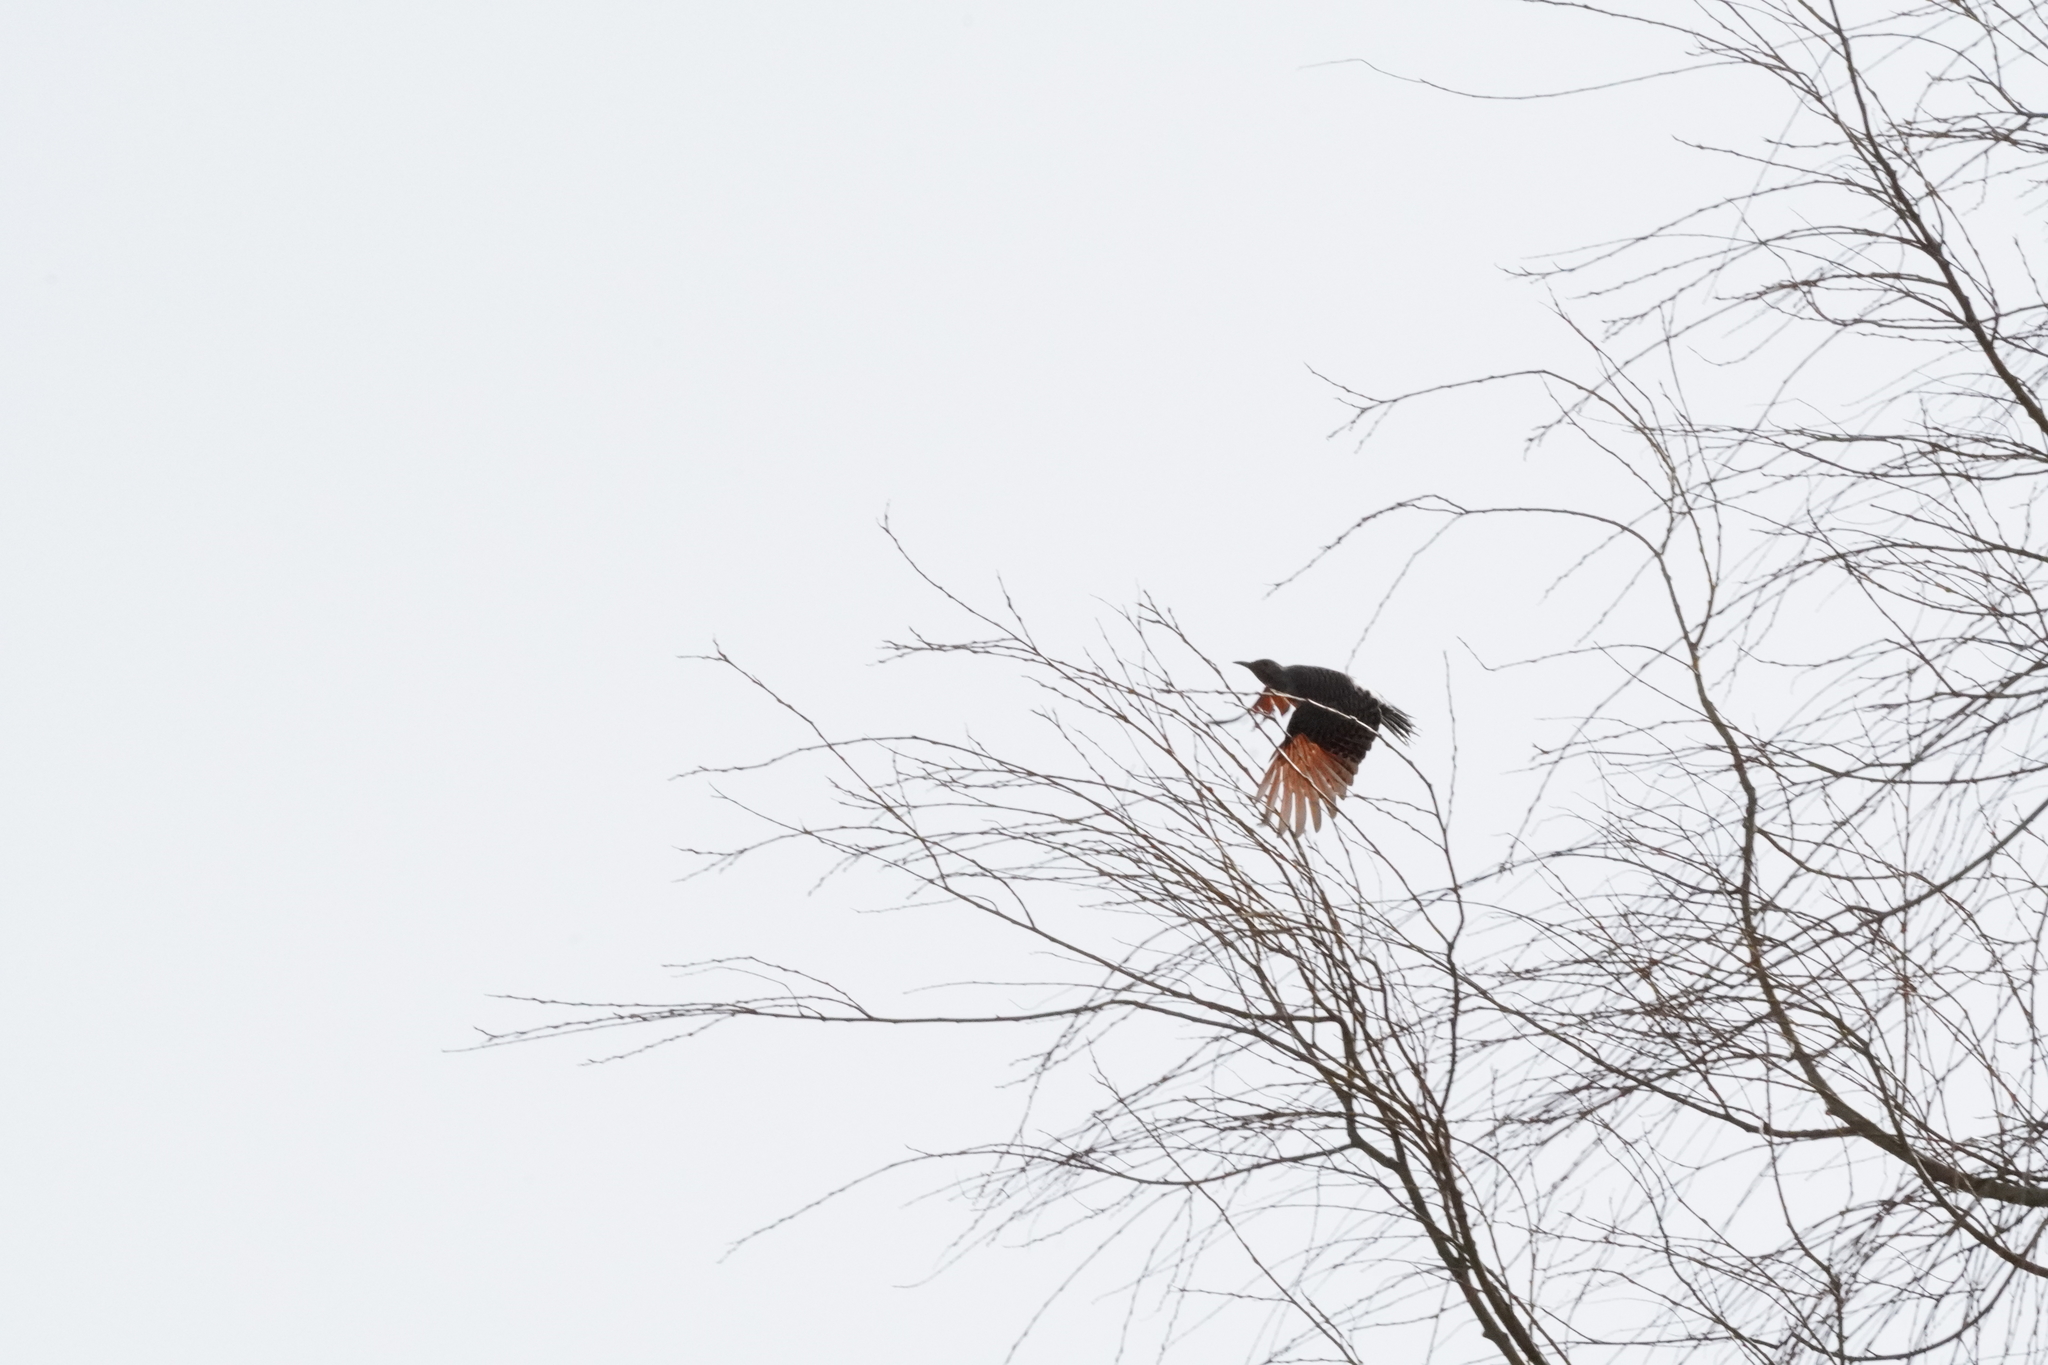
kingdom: Animalia
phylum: Chordata
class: Aves
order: Piciformes
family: Picidae
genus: Colaptes
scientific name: Colaptes auratus
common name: Northern flicker
